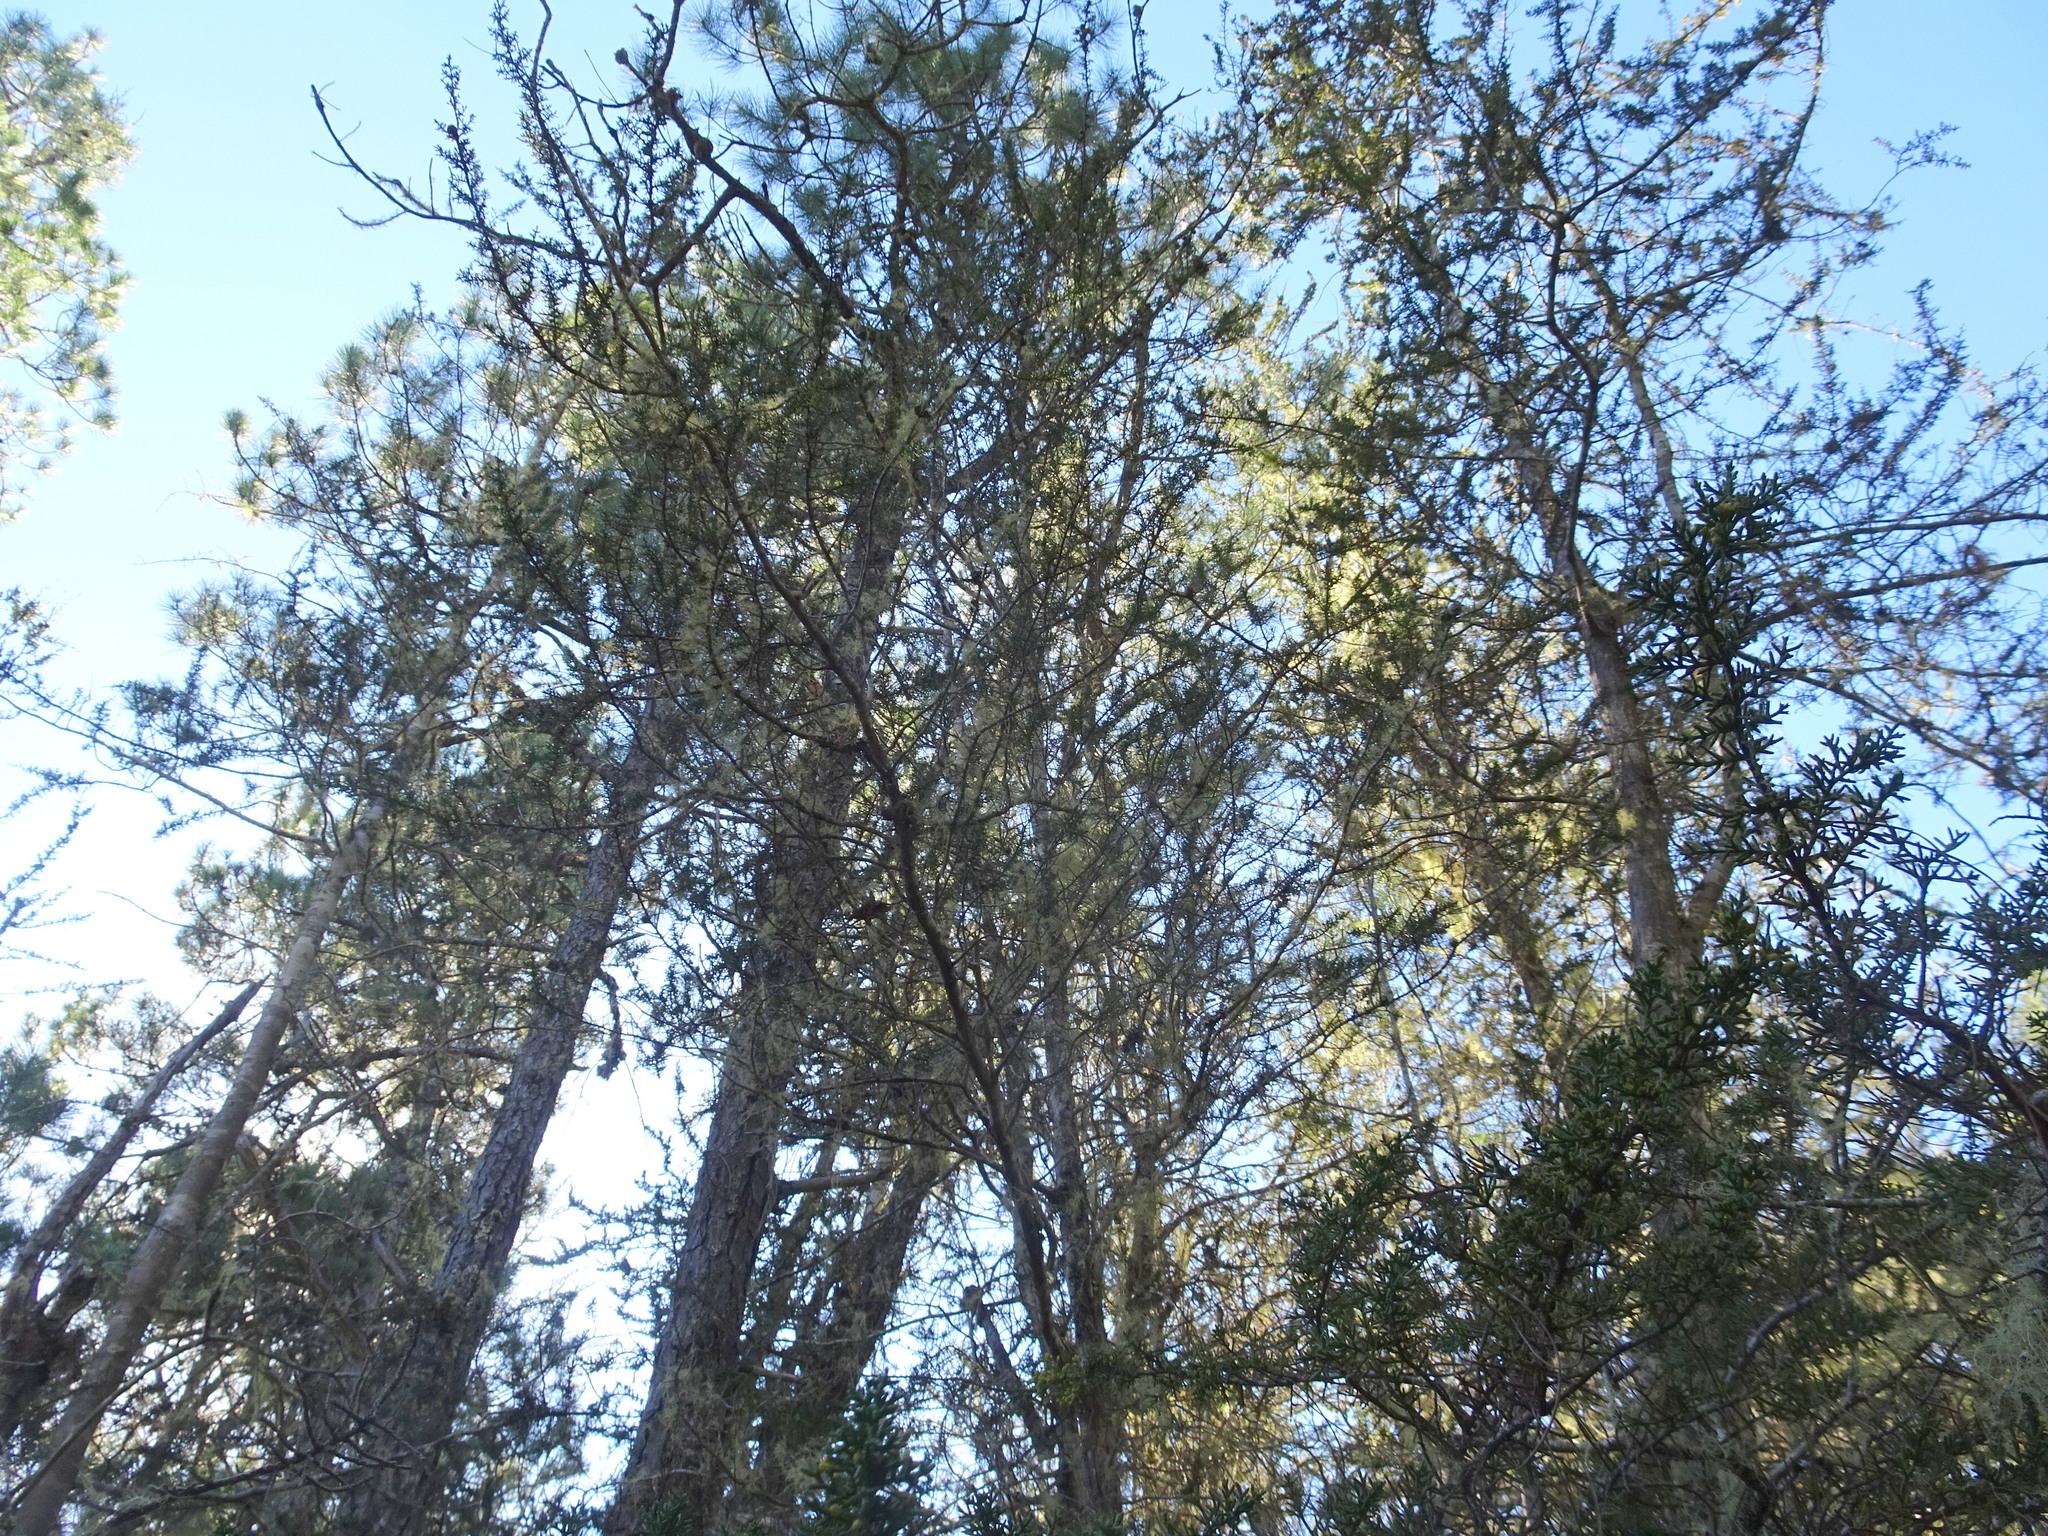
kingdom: Plantae
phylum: Tracheophyta
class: Pinopsida
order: Pinales
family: Cupressaceae
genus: Cupressus
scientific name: Cupressus goveniana
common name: Gowen cypress
